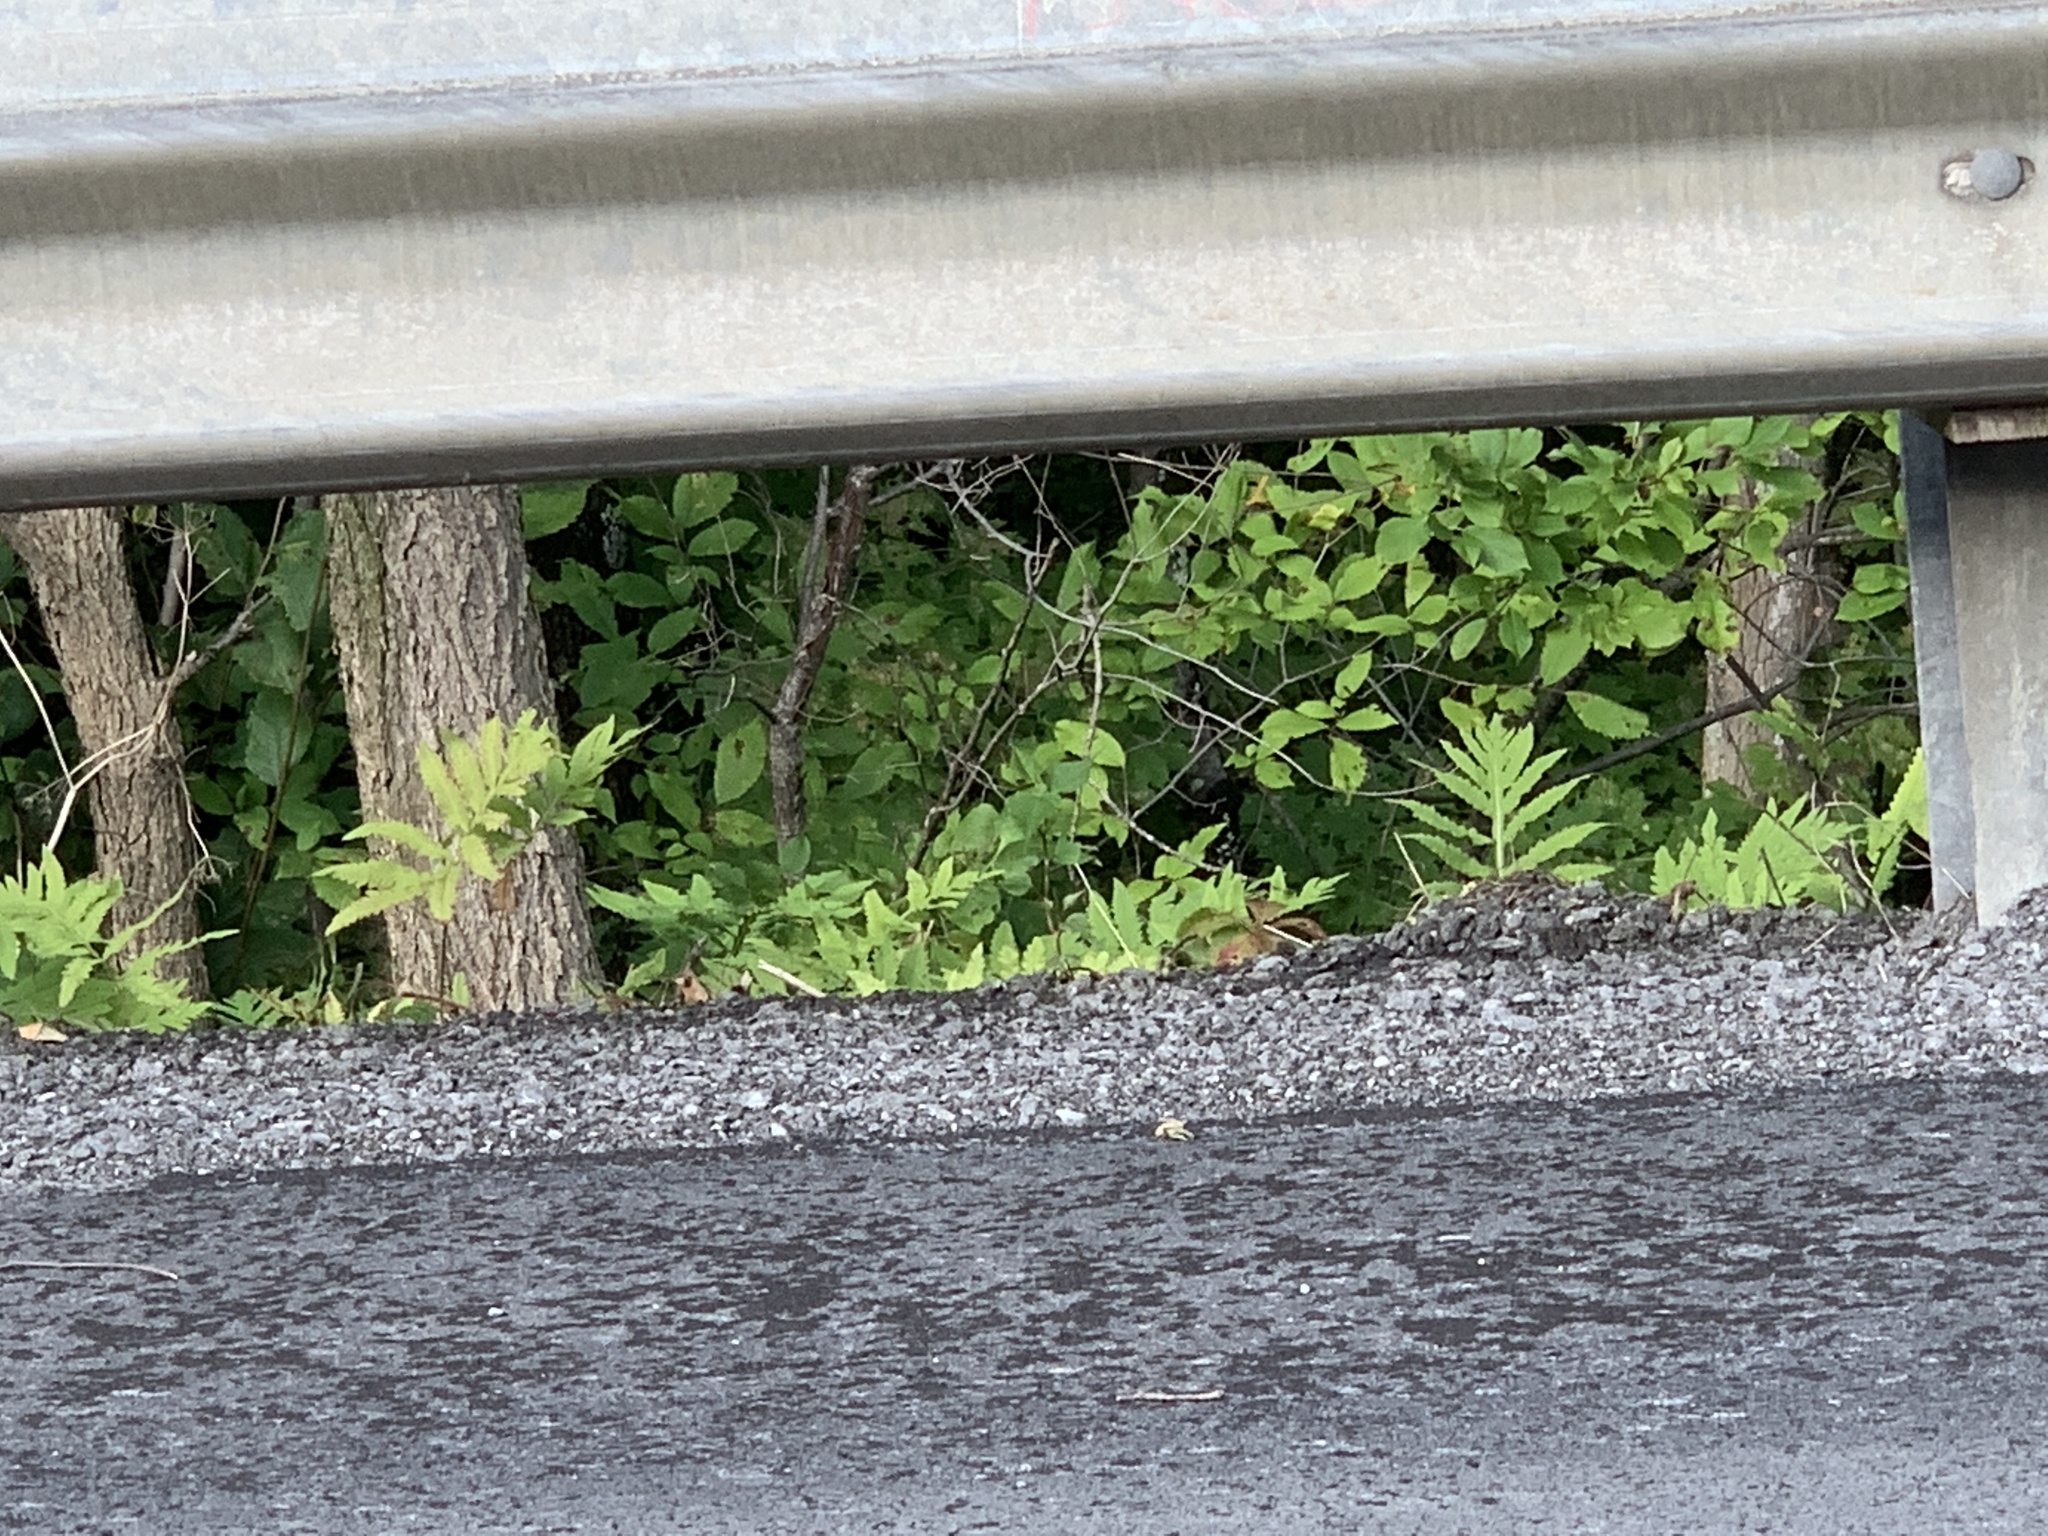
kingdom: Plantae
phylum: Tracheophyta
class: Polypodiopsida
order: Polypodiales
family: Onocleaceae
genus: Onoclea
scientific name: Onoclea sensibilis
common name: Sensitive fern
